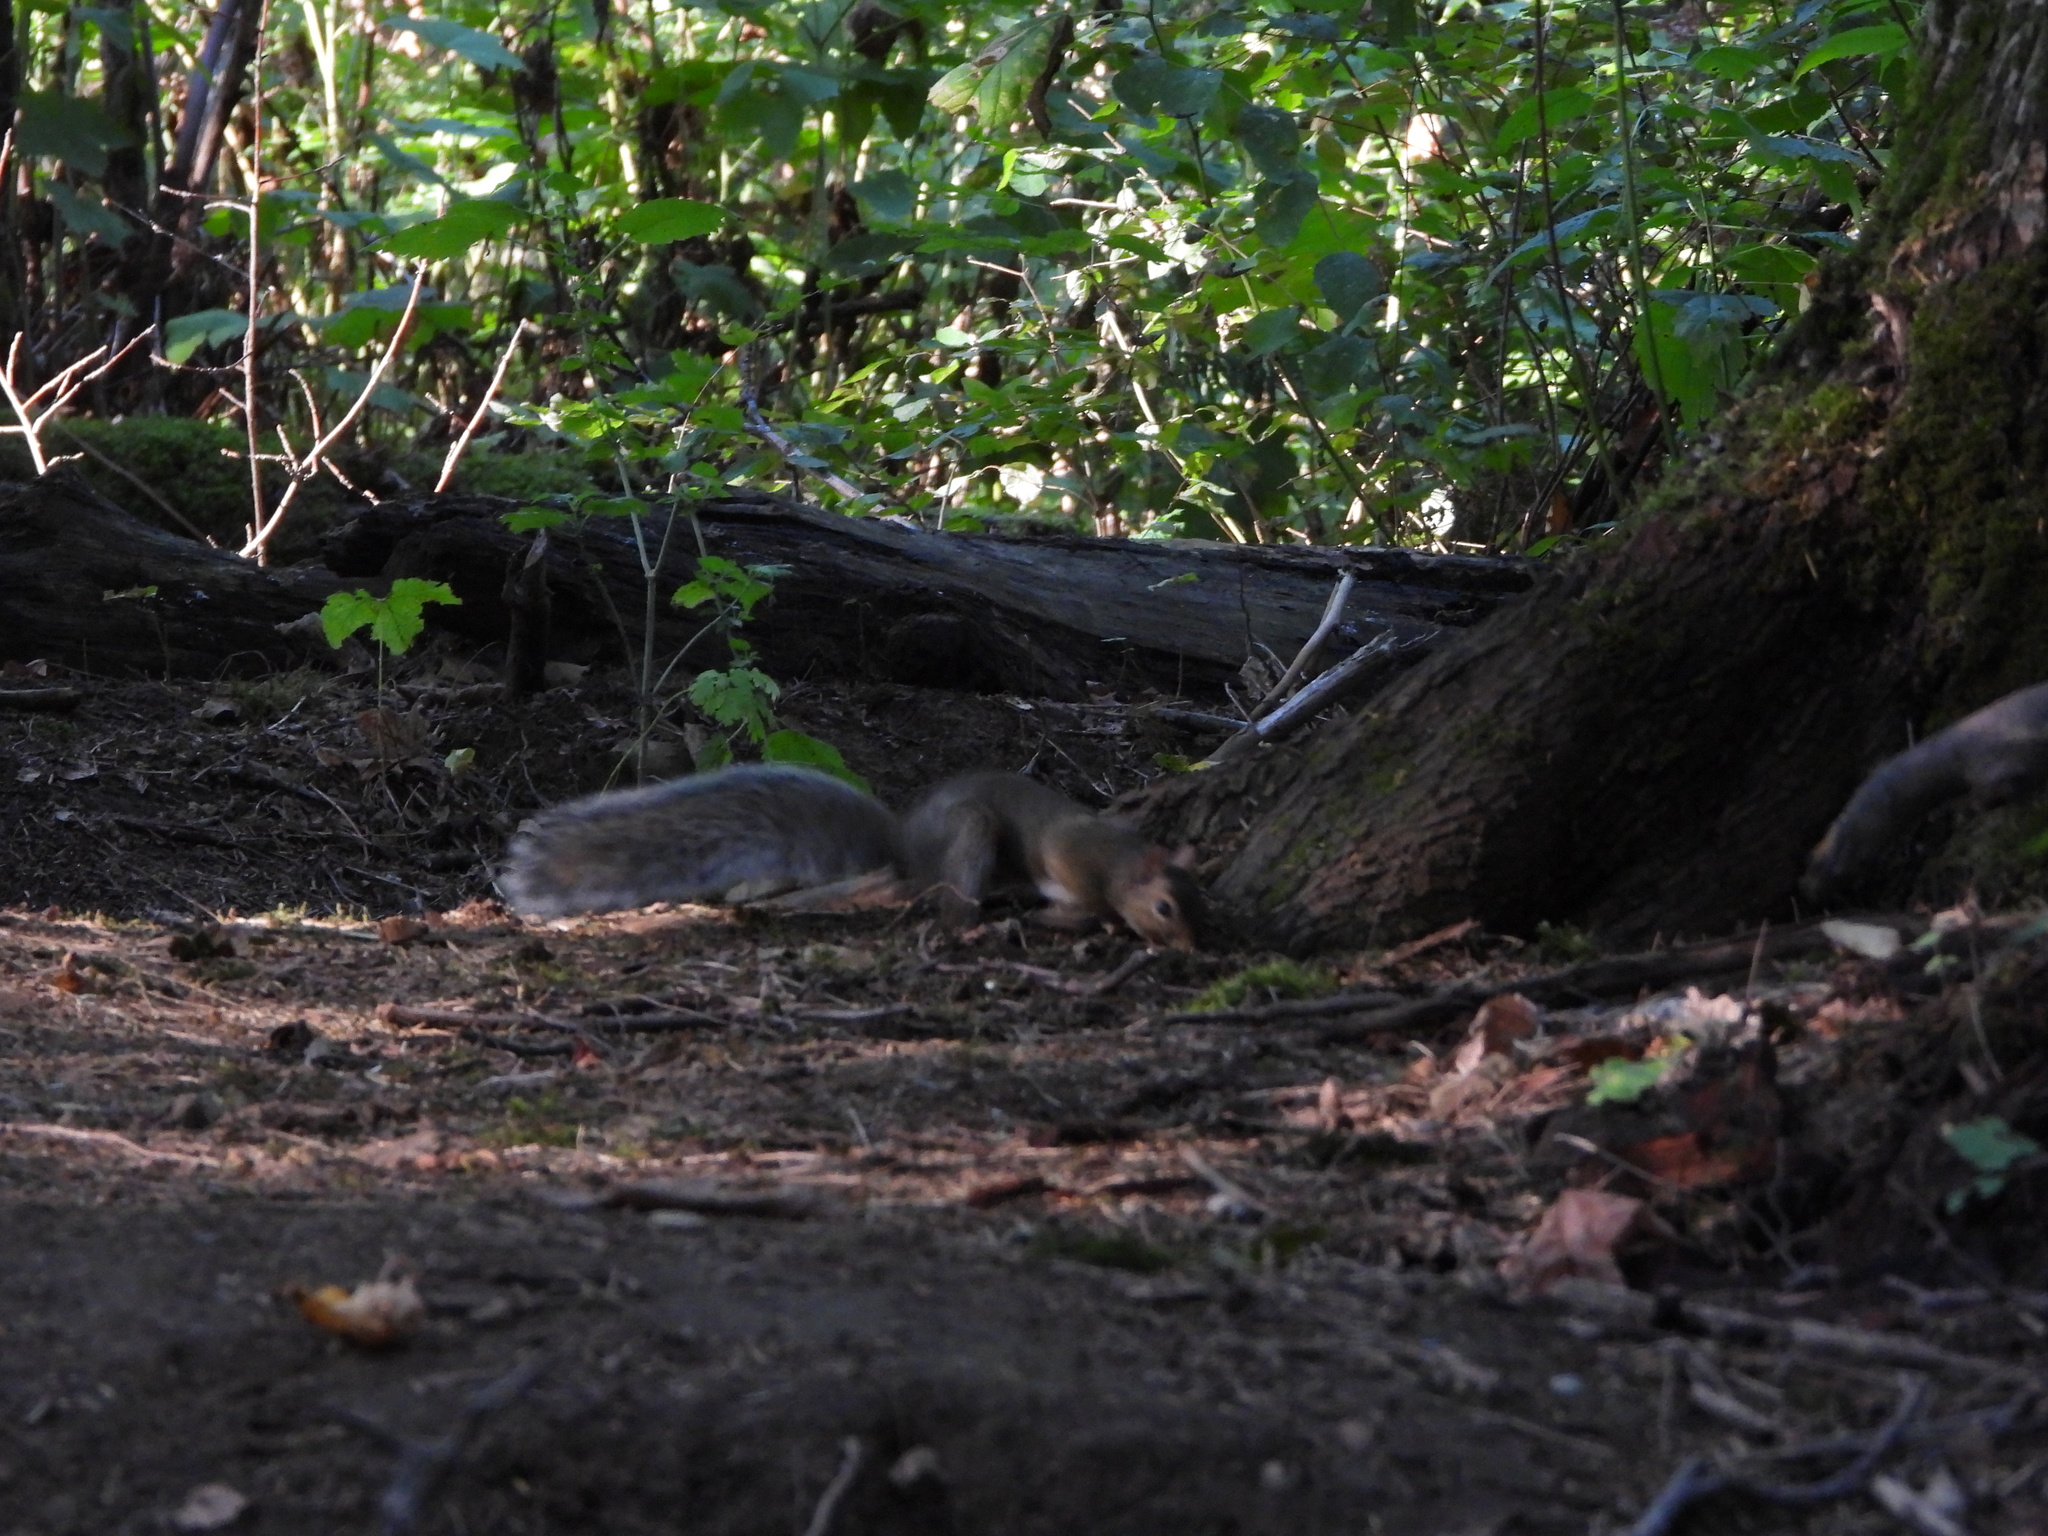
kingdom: Animalia
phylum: Chordata
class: Mammalia
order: Rodentia
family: Sciuridae
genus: Sciurus
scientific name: Sciurus carolinensis
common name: Eastern gray squirrel
